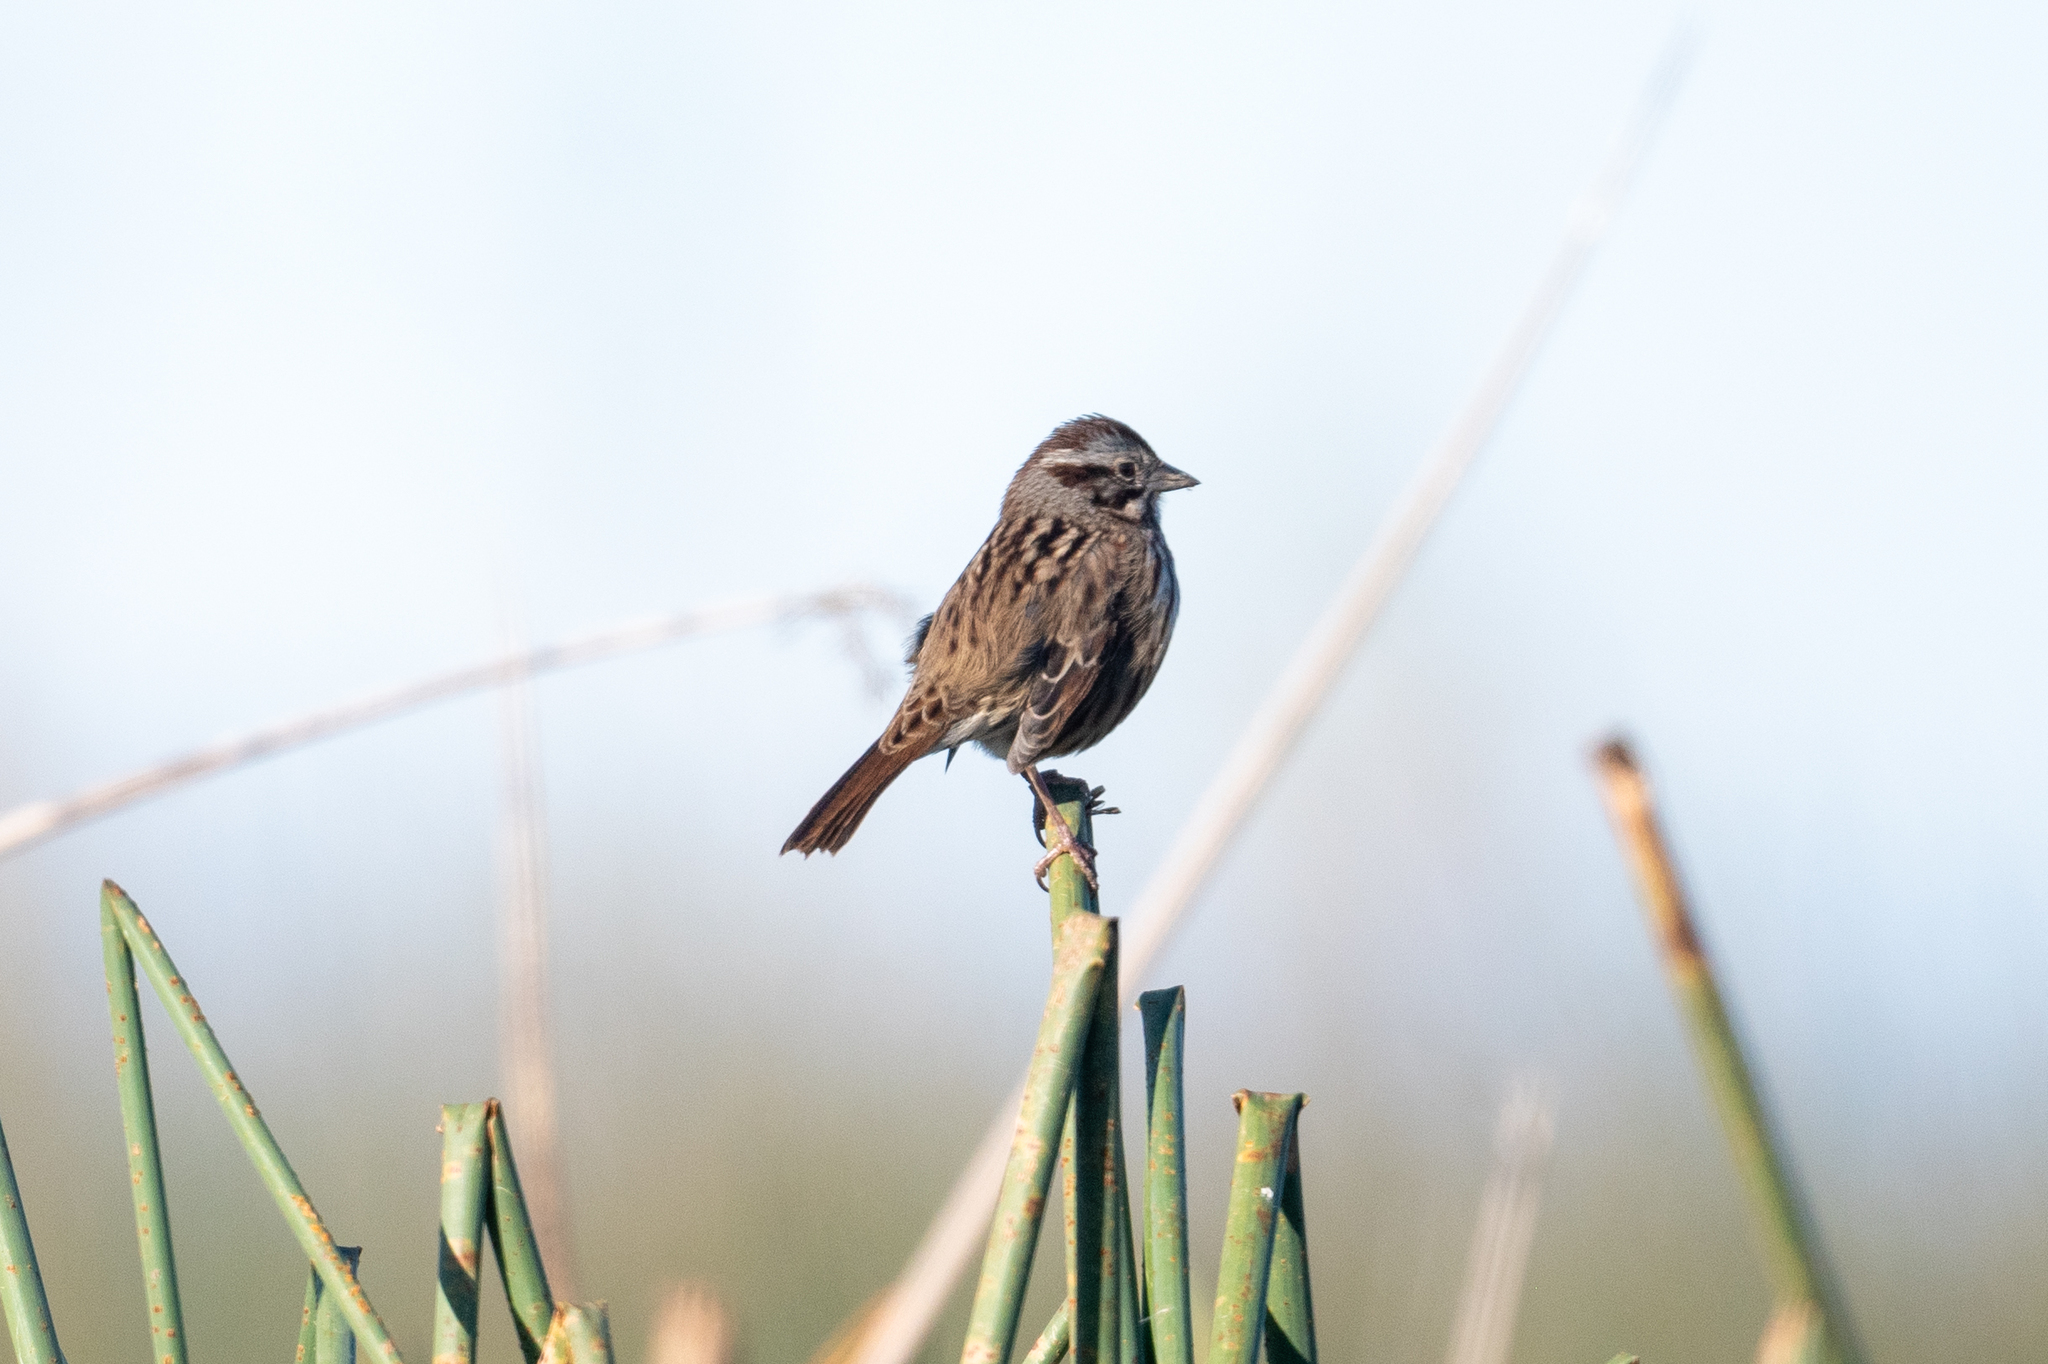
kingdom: Animalia
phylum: Chordata
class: Aves
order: Passeriformes
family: Passerellidae
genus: Melospiza
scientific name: Melospiza melodia
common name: Song sparrow
